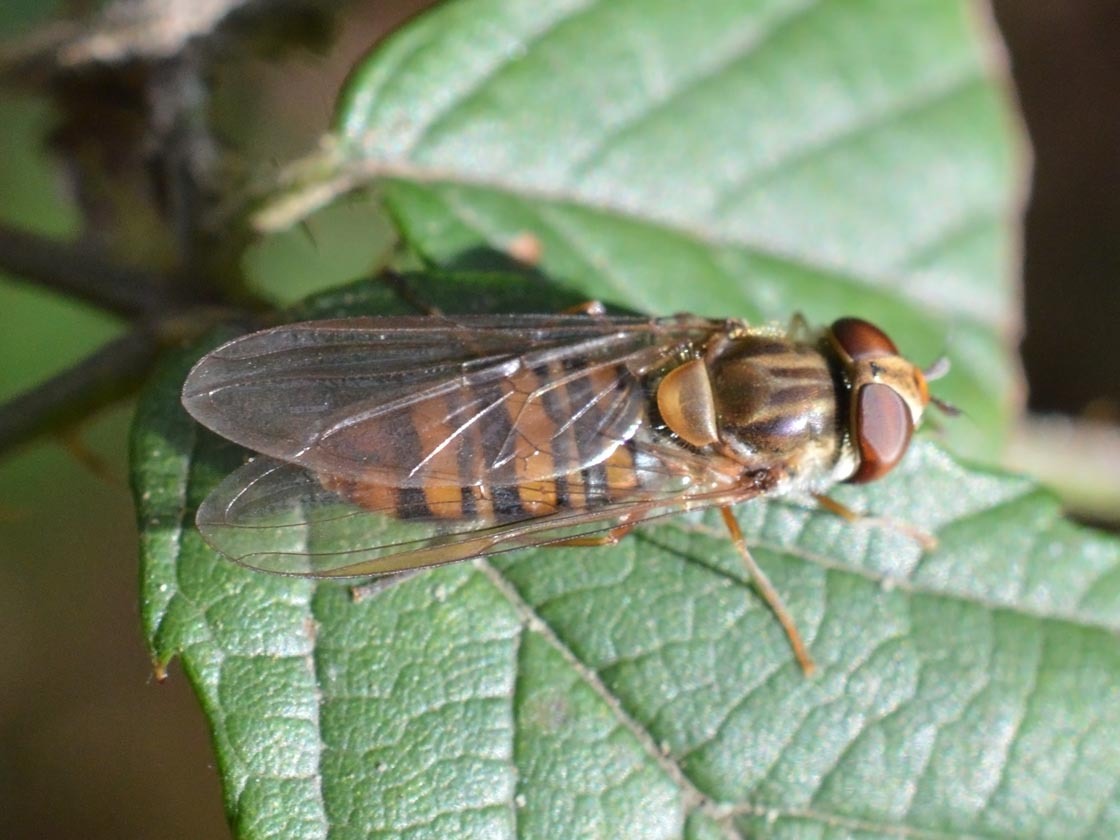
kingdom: Animalia
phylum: Arthropoda
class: Insecta
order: Diptera
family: Syrphidae
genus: Episyrphus
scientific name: Episyrphus balteatus
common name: Marmalade hoverfly
